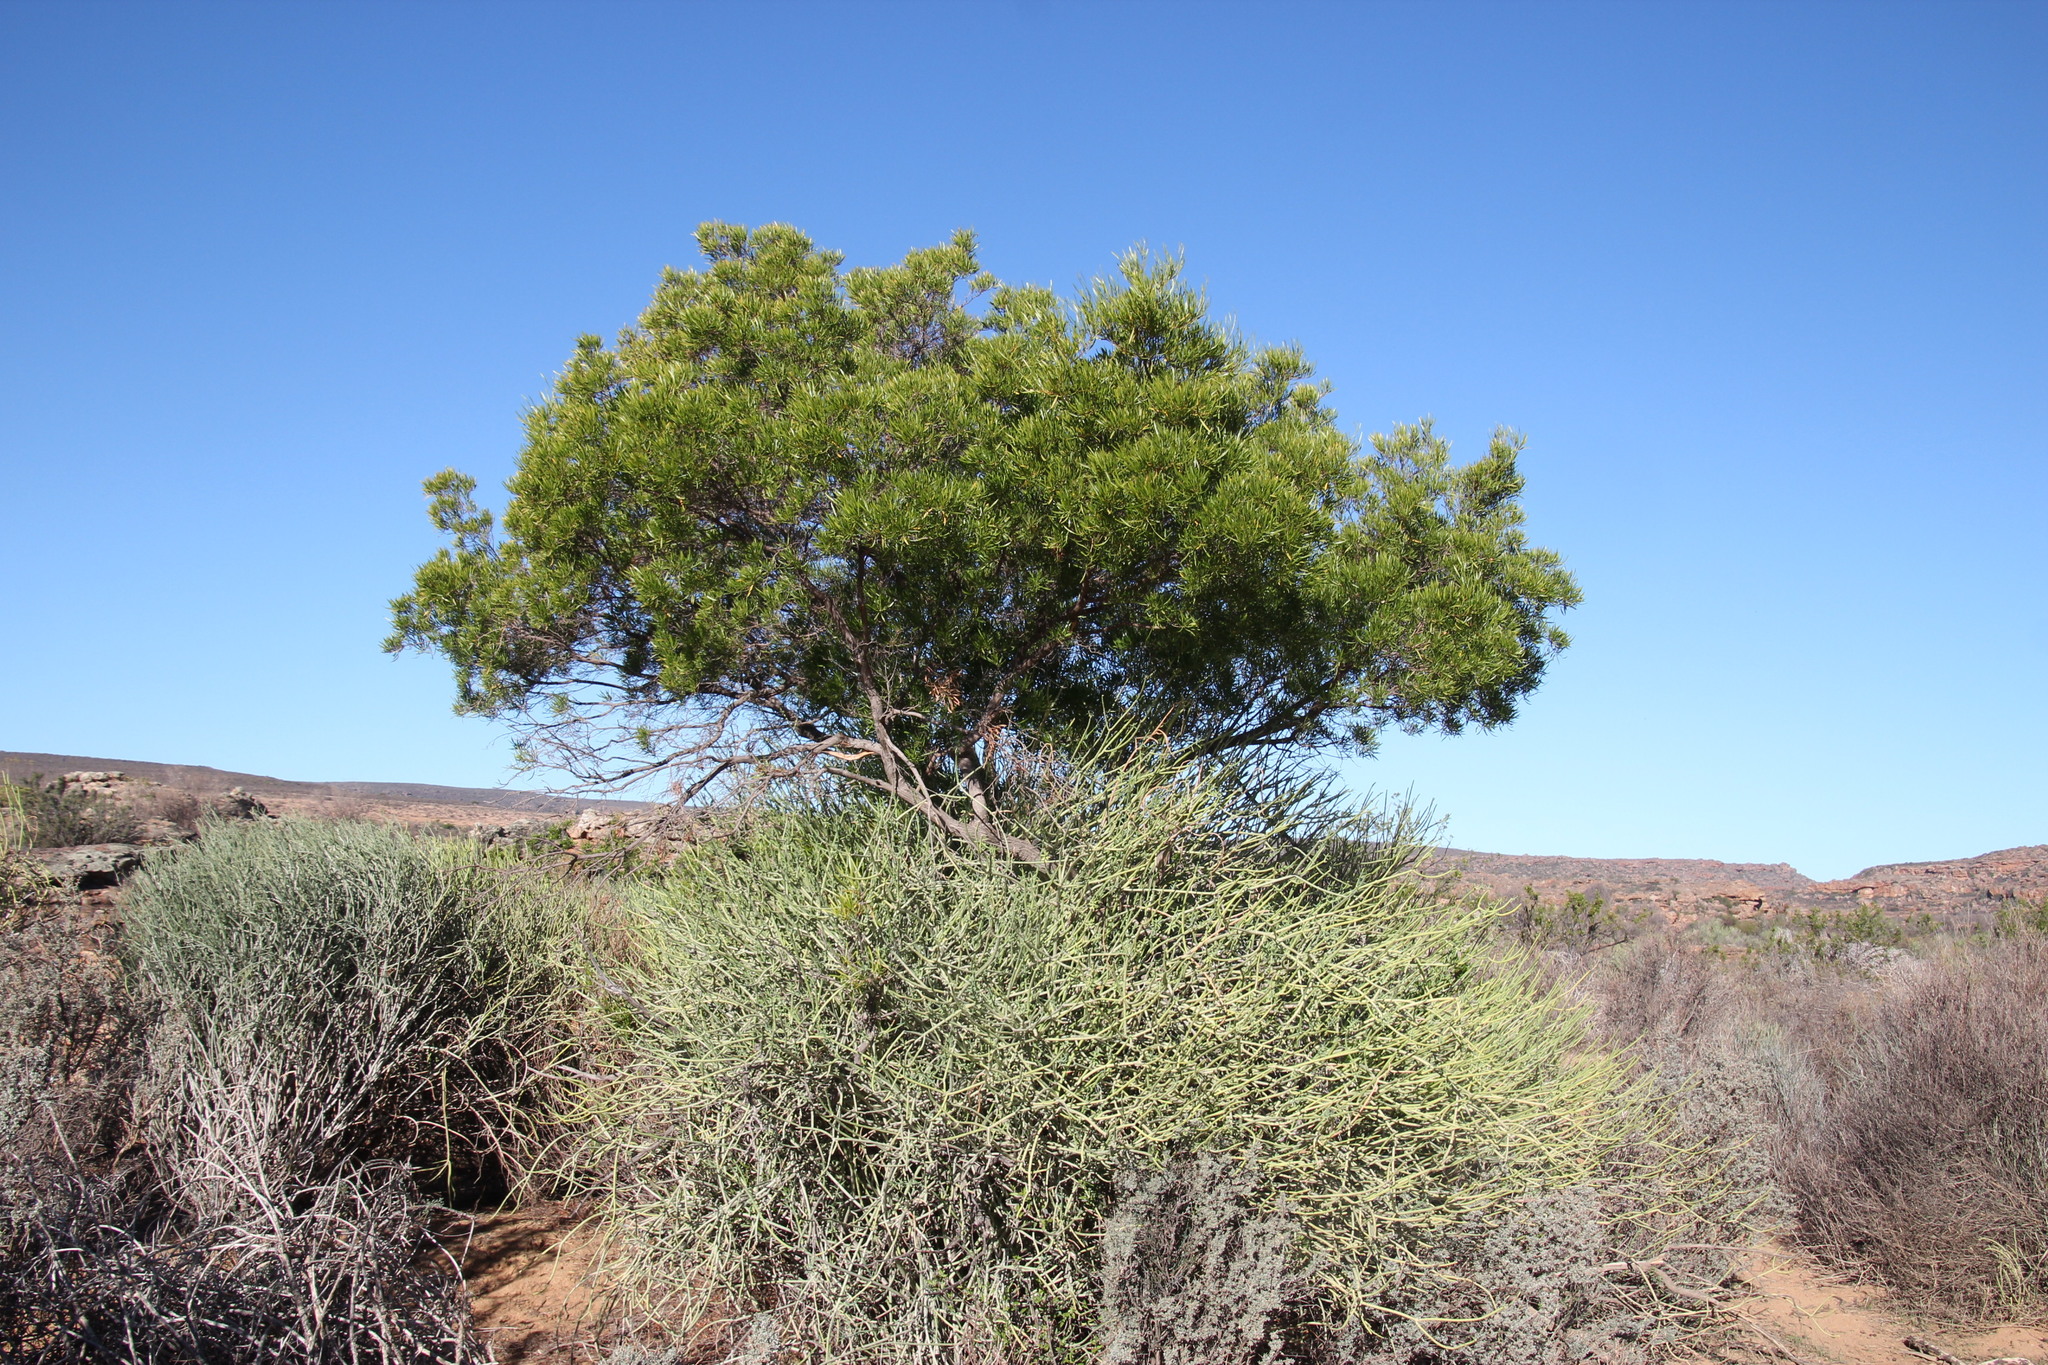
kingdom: Plantae
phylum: Tracheophyta
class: Magnoliopsida
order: Sapindales
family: Sapindaceae
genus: Dodonaea
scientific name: Dodonaea viscosa
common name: Hopbush
